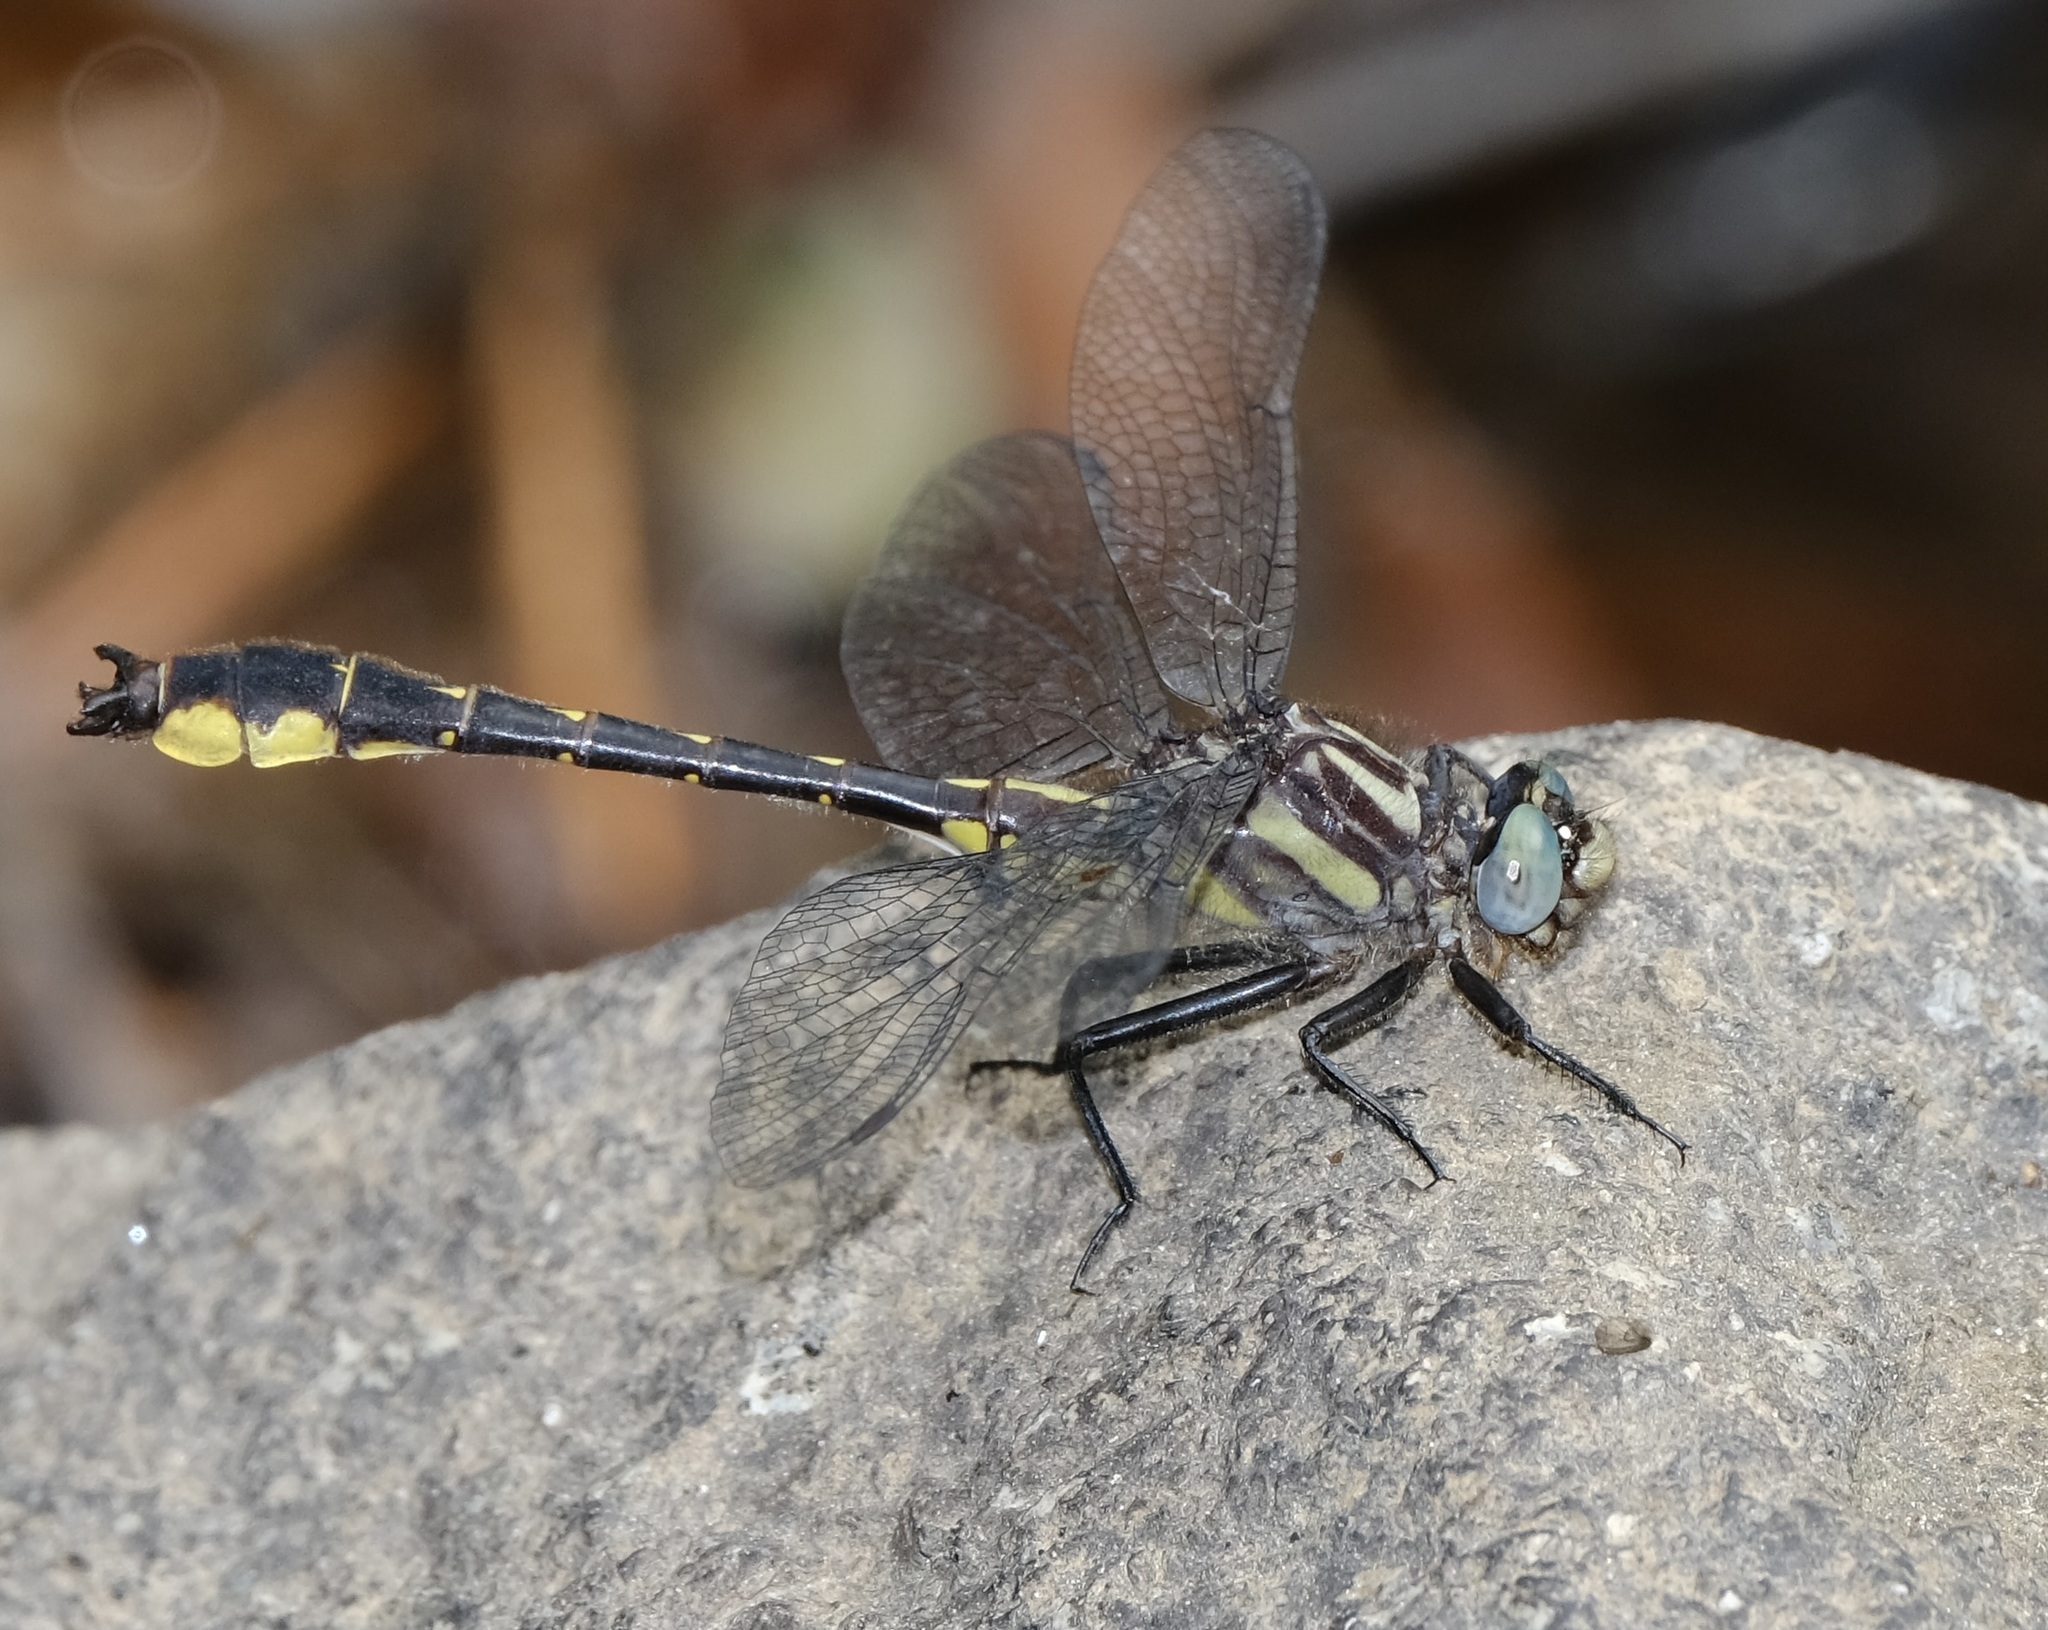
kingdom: Animalia
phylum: Arthropoda
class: Insecta
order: Odonata
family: Gomphidae
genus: Hylogomphus
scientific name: Hylogomphus apomyius
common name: Banner clubtail
